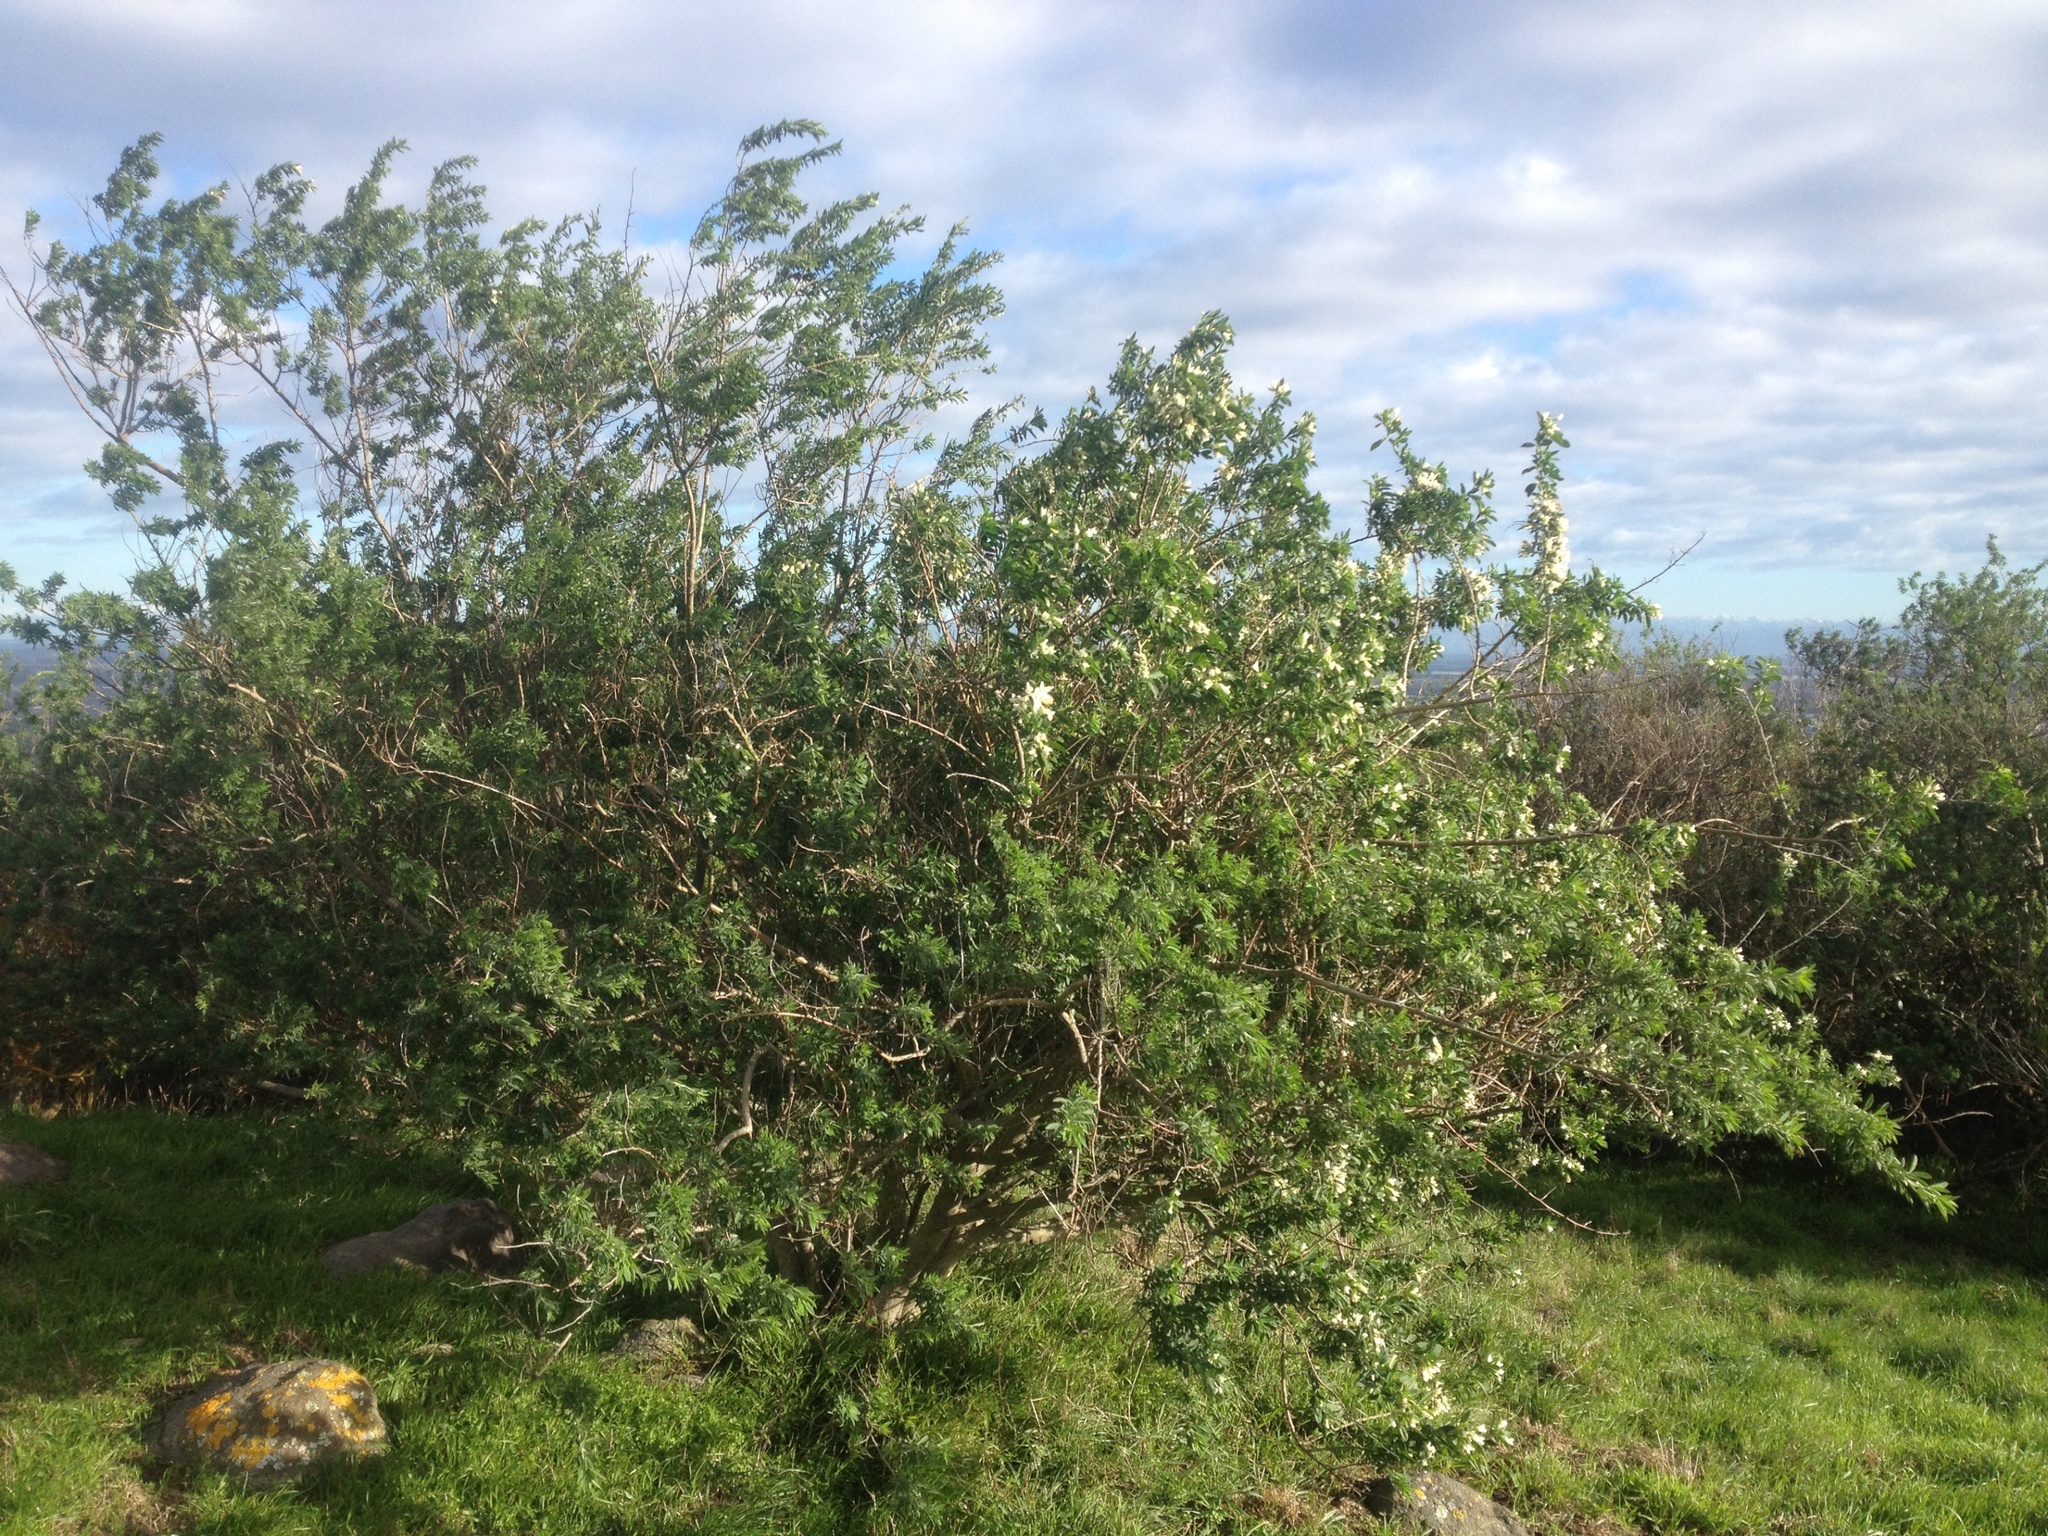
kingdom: Plantae
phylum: Tracheophyta
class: Magnoliopsida
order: Fabales
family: Fabaceae
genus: Chamaecytisus
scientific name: Chamaecytisus prolifer
